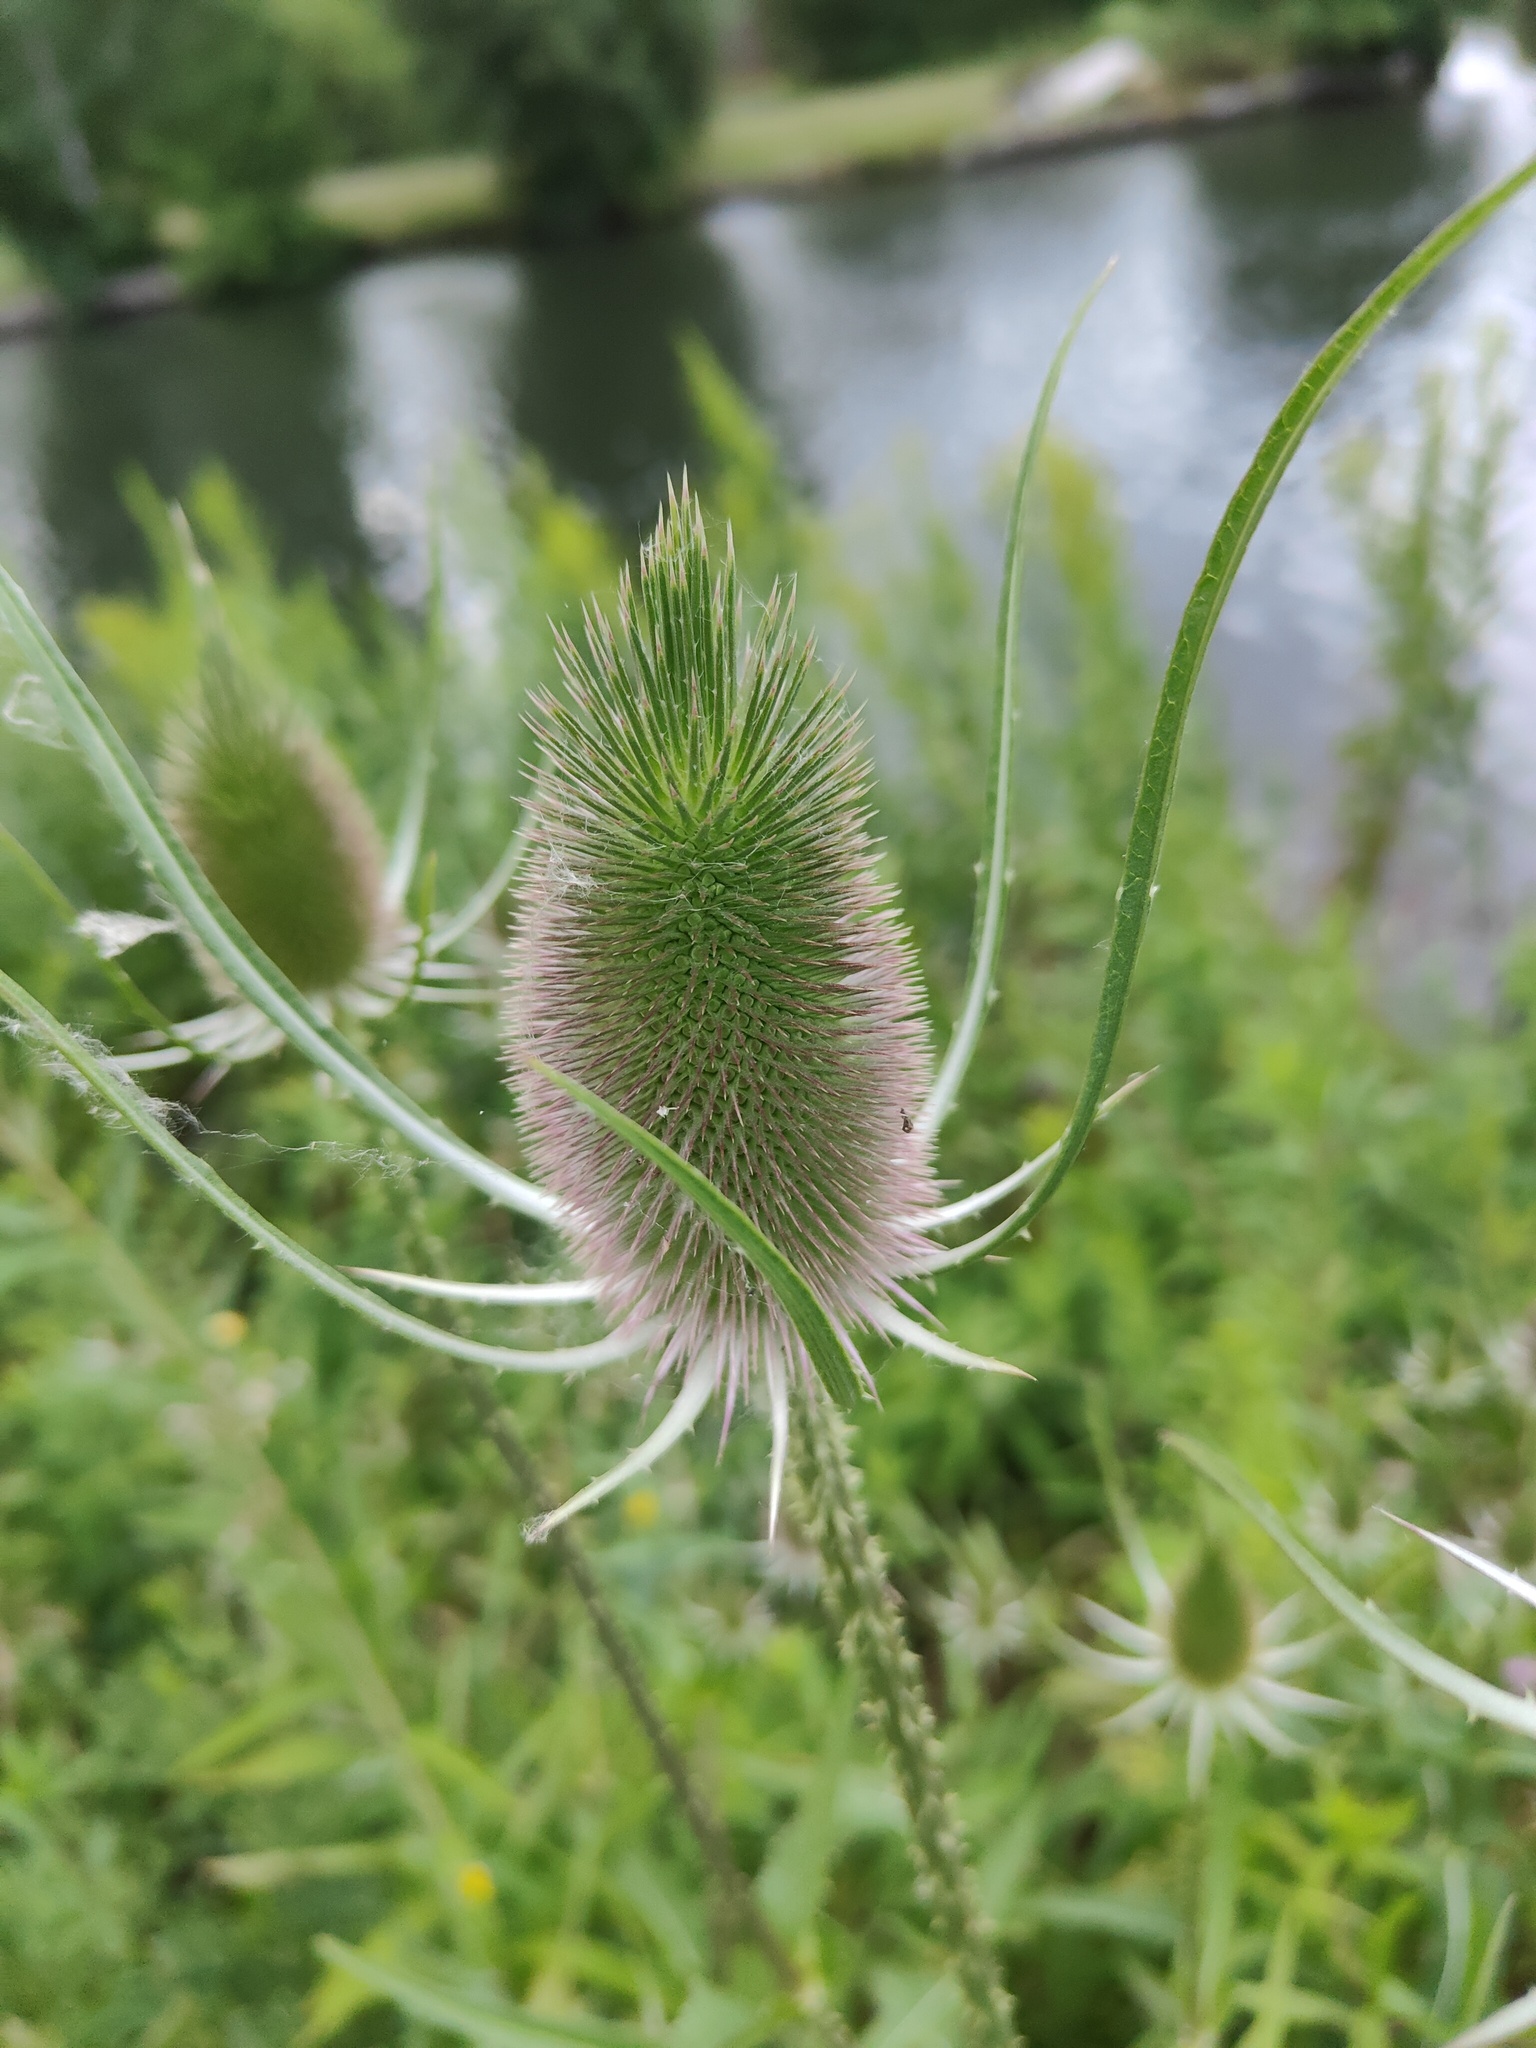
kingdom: Plantae
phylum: Tracheophyta
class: Magnoliopsida
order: Dipsacales
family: Caprifoliaceae
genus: Dipsacus
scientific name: Dipsacus fullonum
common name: Teasel
